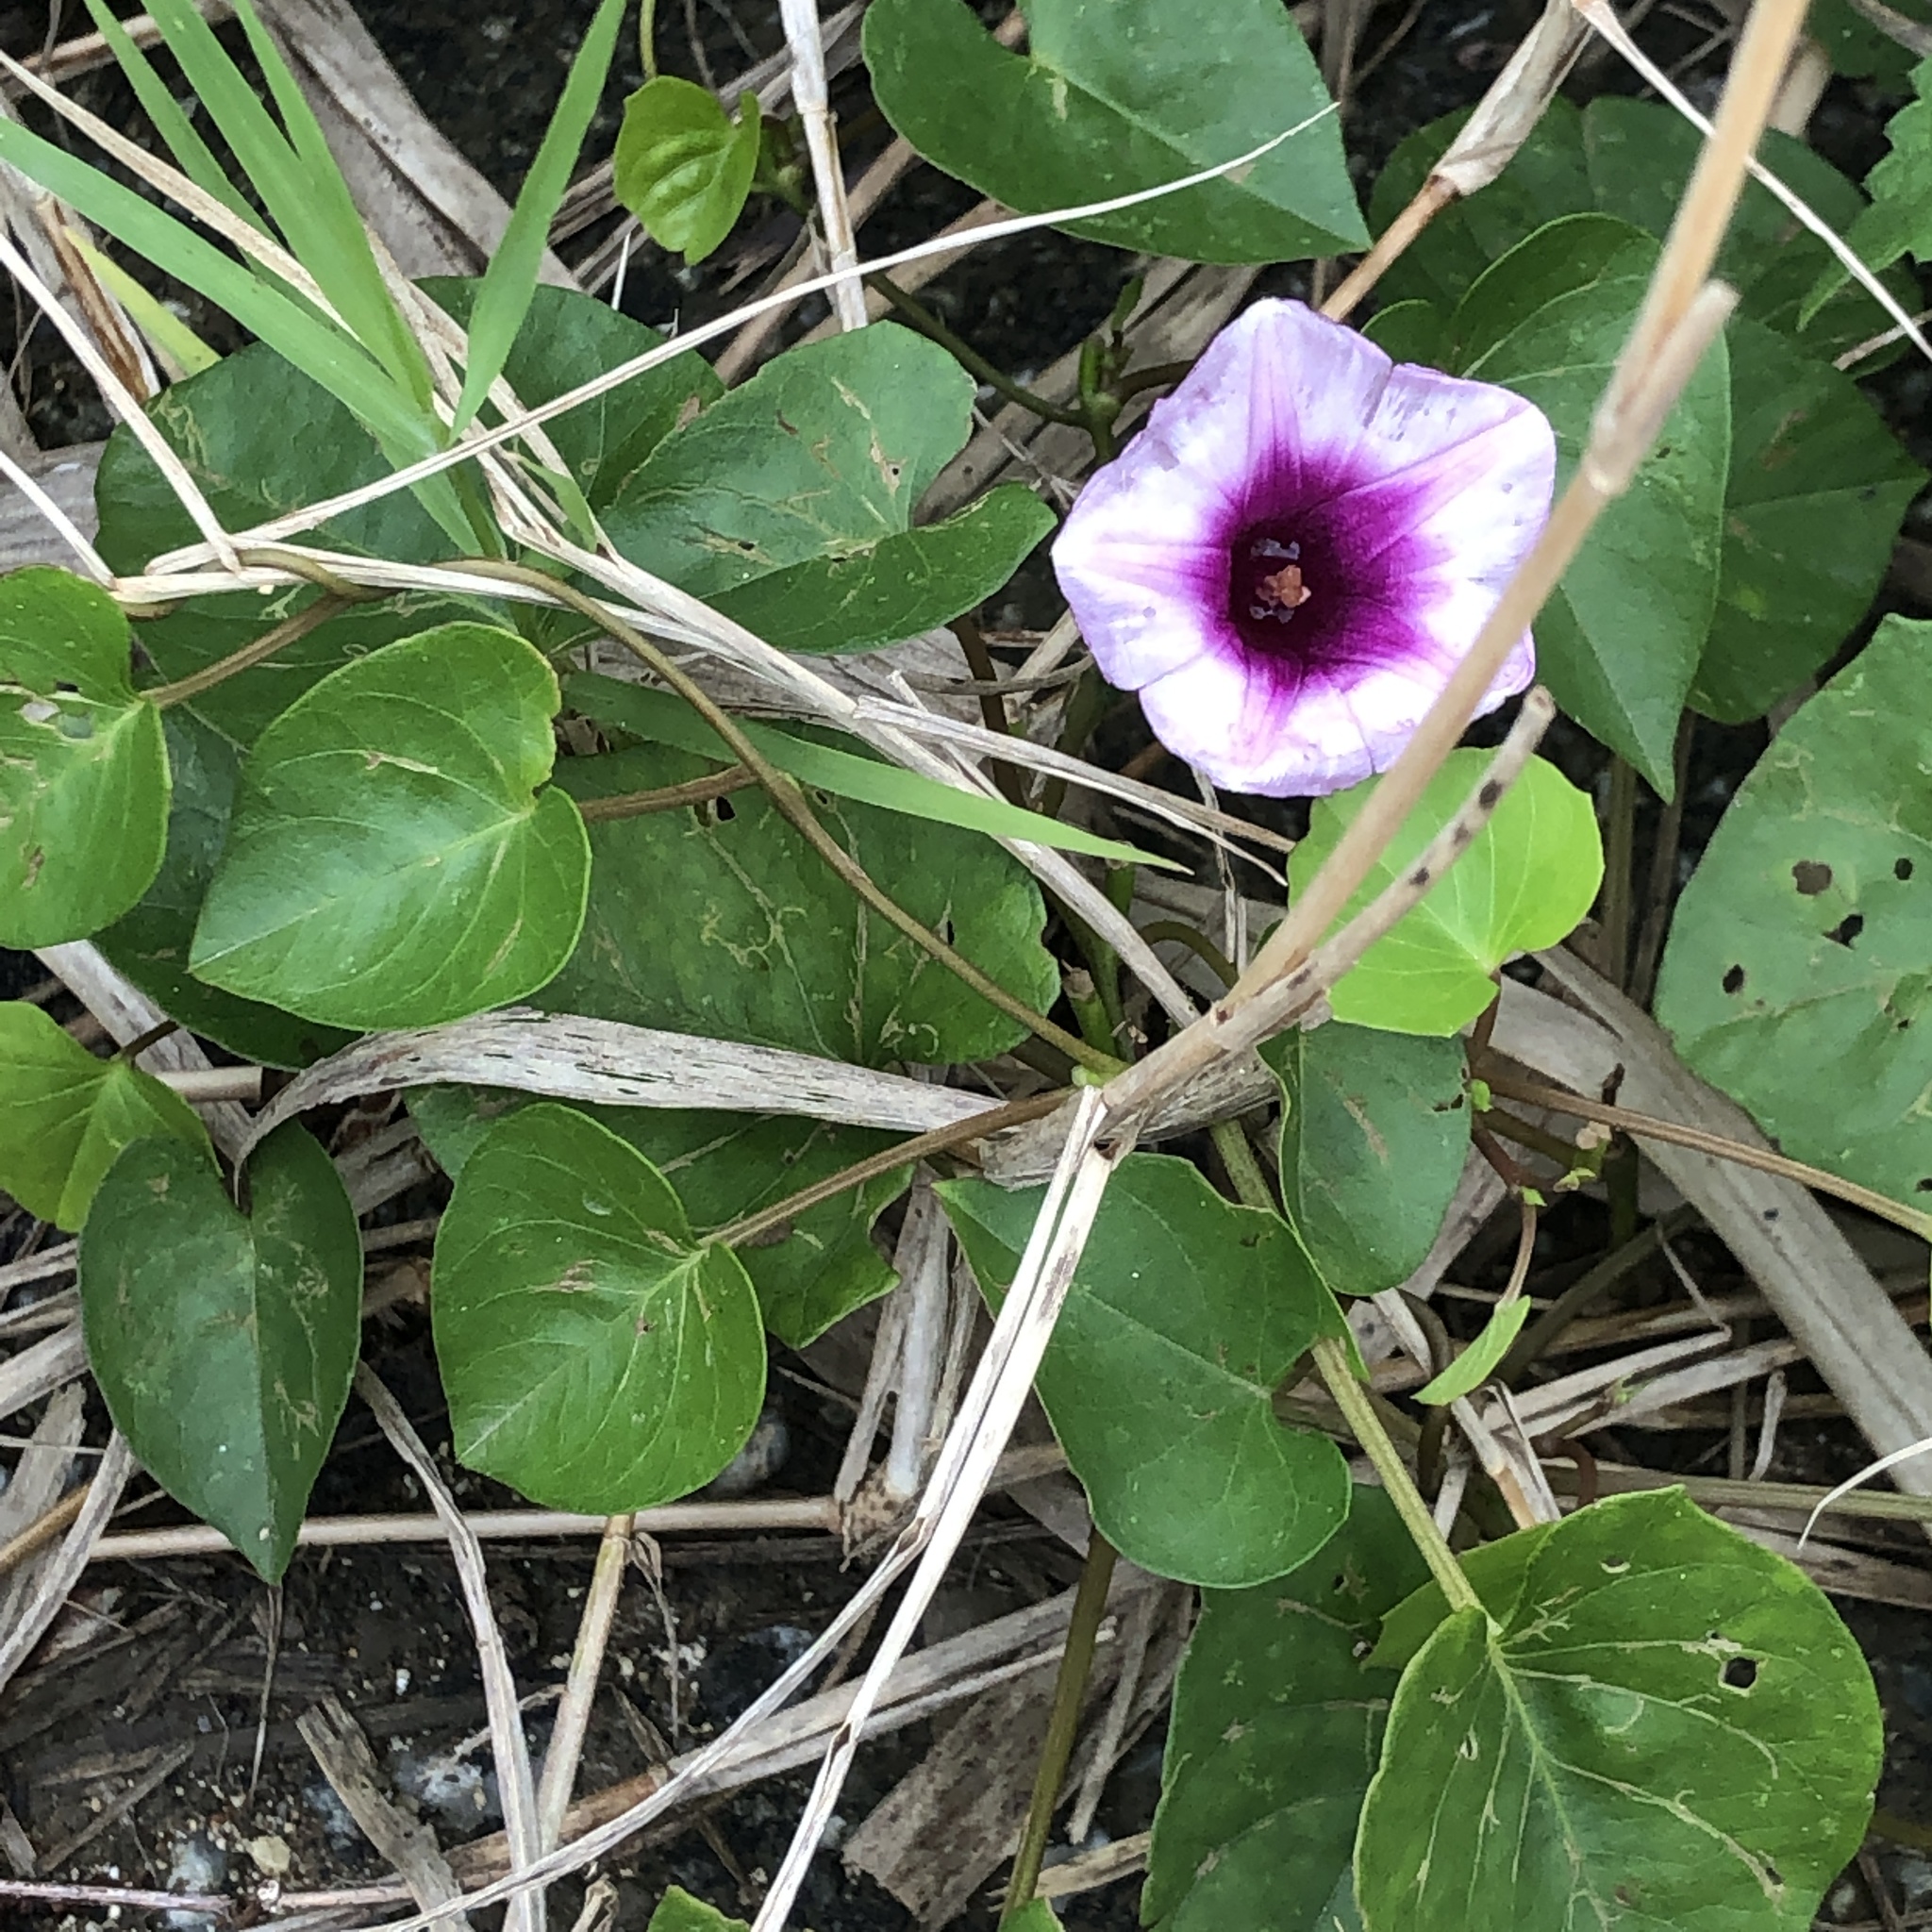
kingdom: Plantae
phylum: Tracheophyta
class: Magnoliopsida
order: Solanales
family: Convolvulaceae
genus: Ipomoea
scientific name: Ipomoea littoralis
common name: Coastal morning glory
